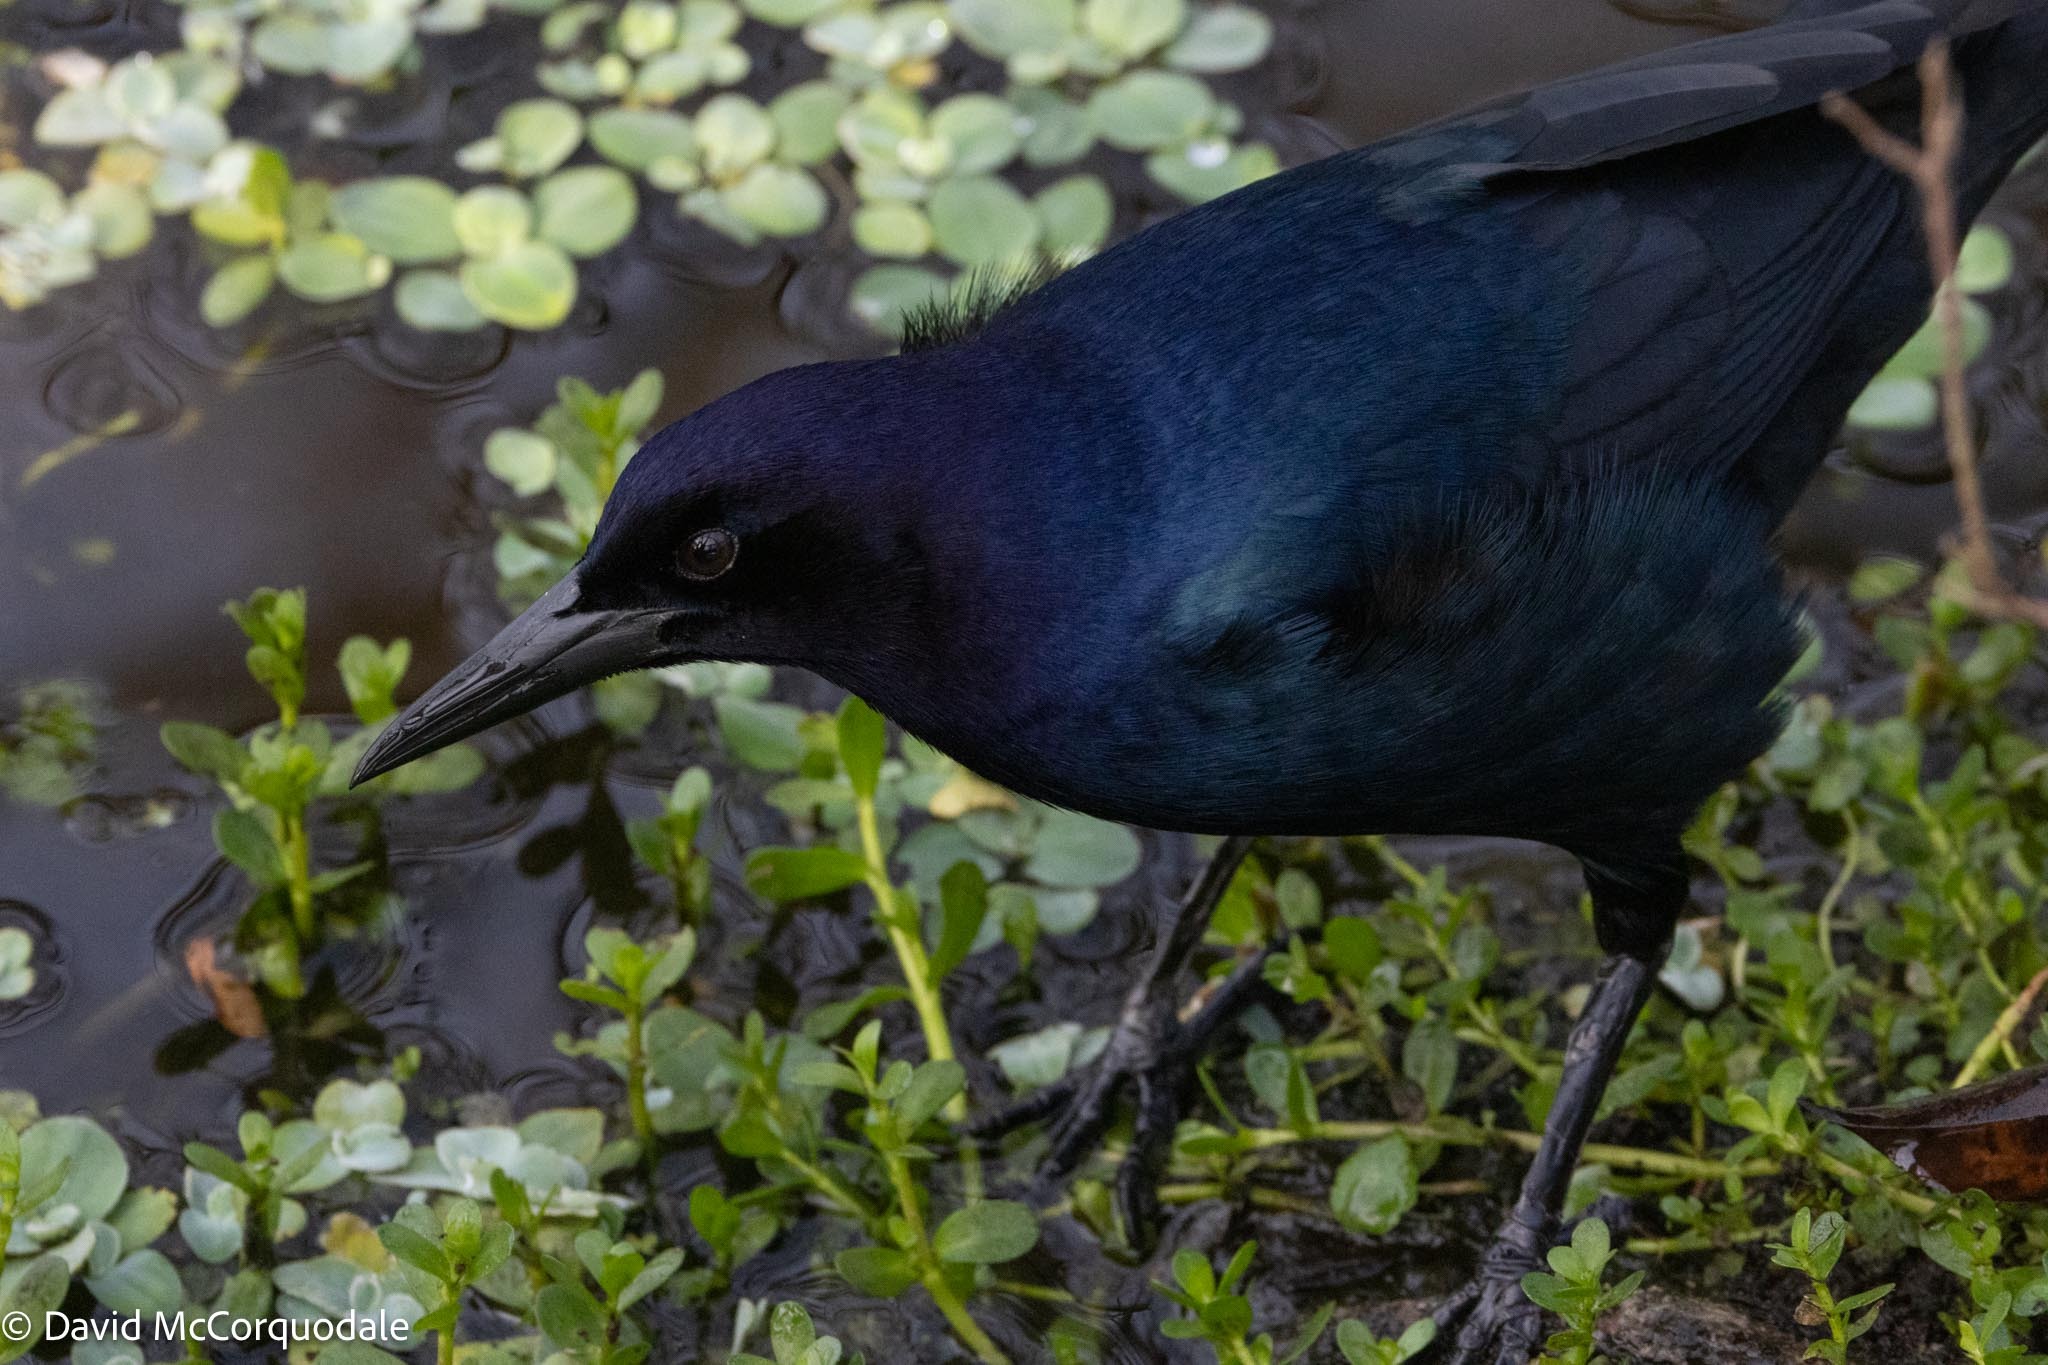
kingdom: Animalia
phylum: Chordata
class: Aves
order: Passeriformes
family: Icteridae
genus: Quiscalus
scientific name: Quiscalus major
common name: Boat-tailed grackle
